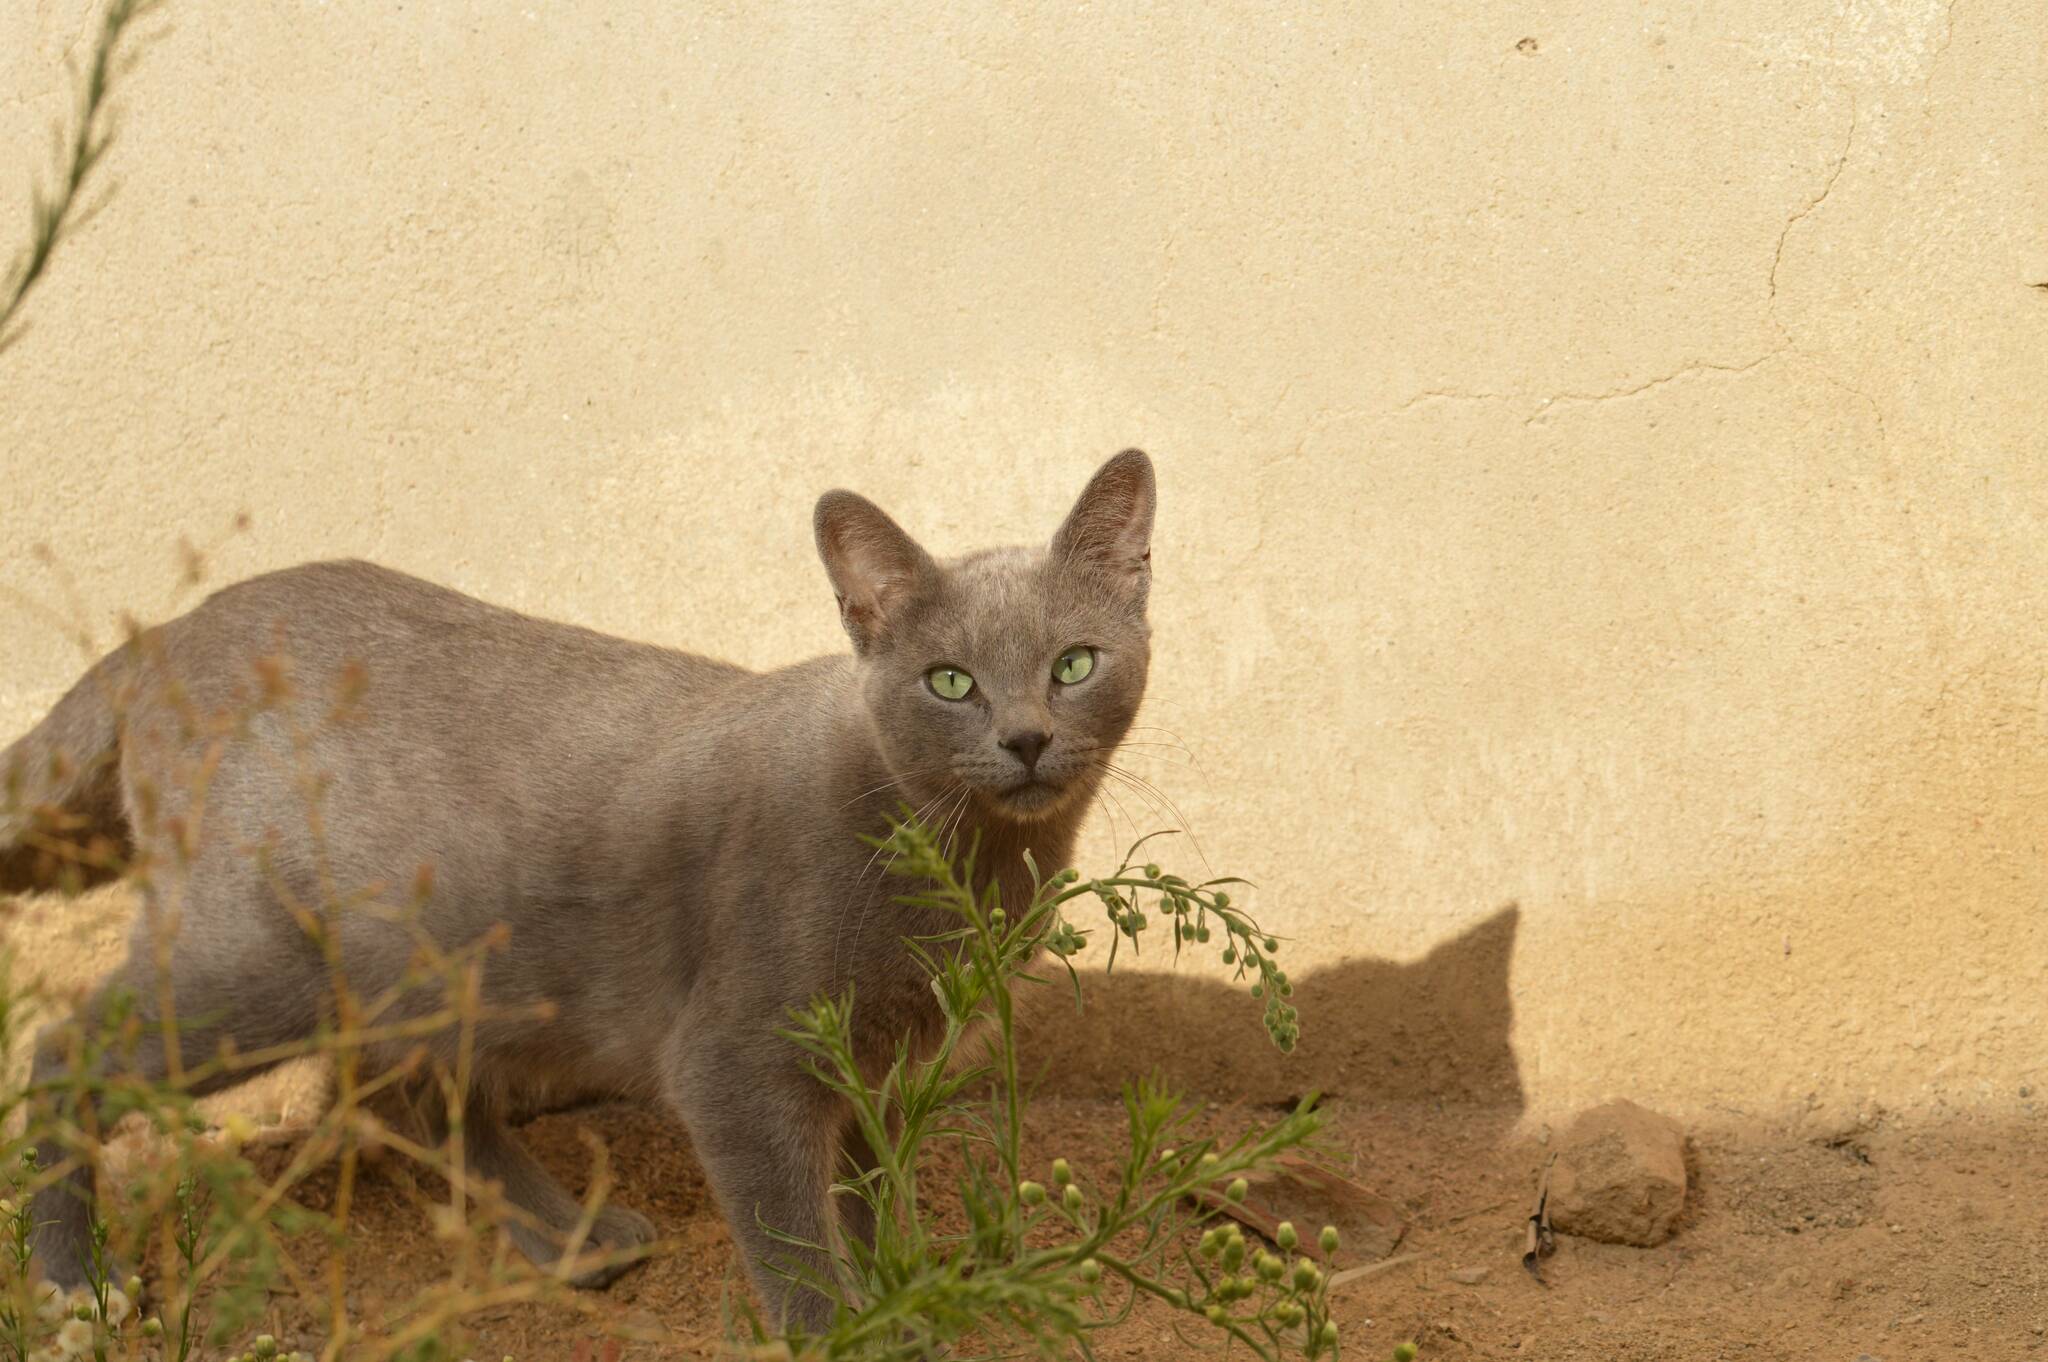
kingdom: Animalia
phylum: Chordata
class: Mammalia
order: Carnivora
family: Felidae
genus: Felis
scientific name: Felis catus
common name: Domestic cat
